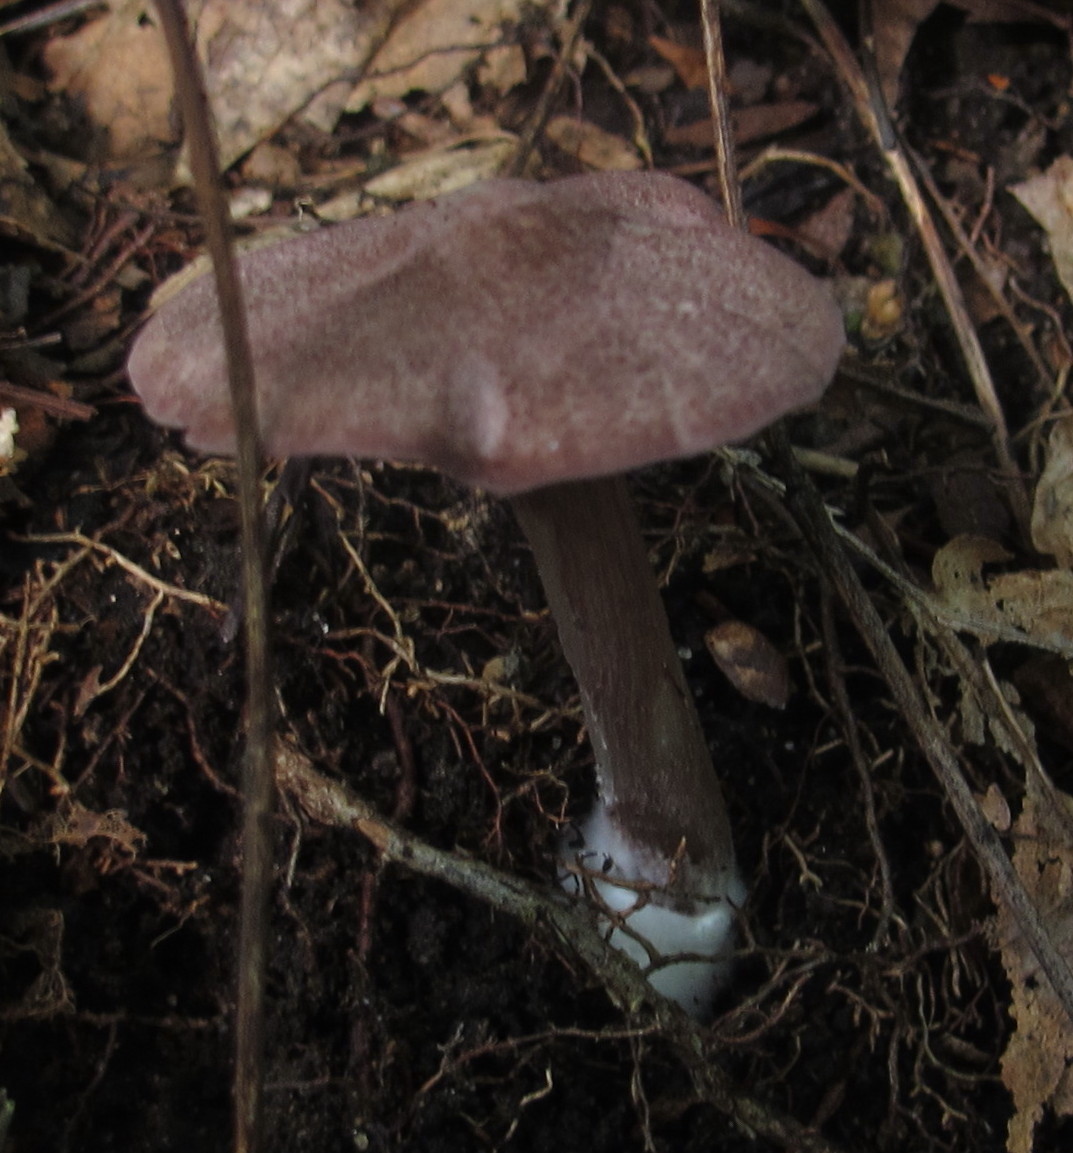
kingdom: Fungi
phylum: Basidiomycota
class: Agaricomycetes
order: Agaricales
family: Entolomataceae
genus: Entoloma
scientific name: Entoloma cyaneum
